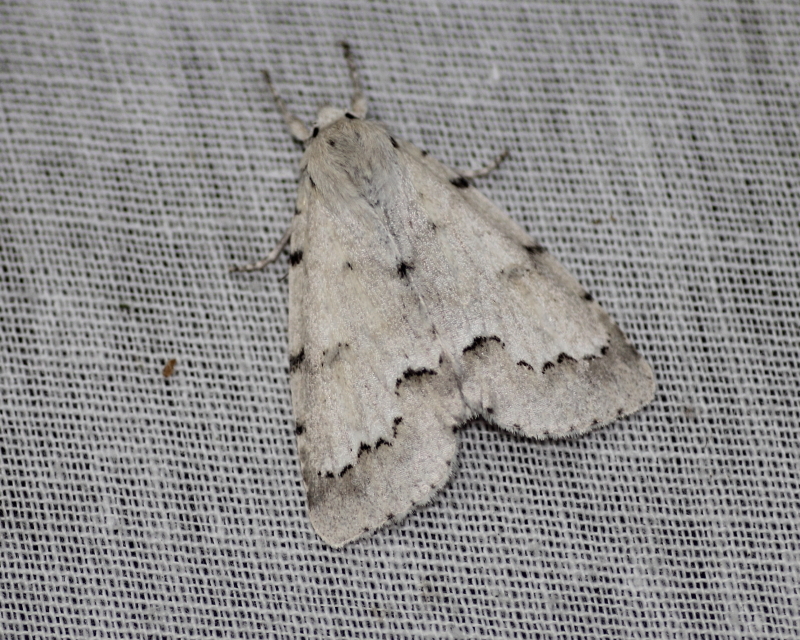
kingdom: Animalia
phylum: Arthropoda
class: Insecta
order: Lepidoptera
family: Noctuidae
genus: Acronicta
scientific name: Acronicta innotata
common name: Unmarked dagger
